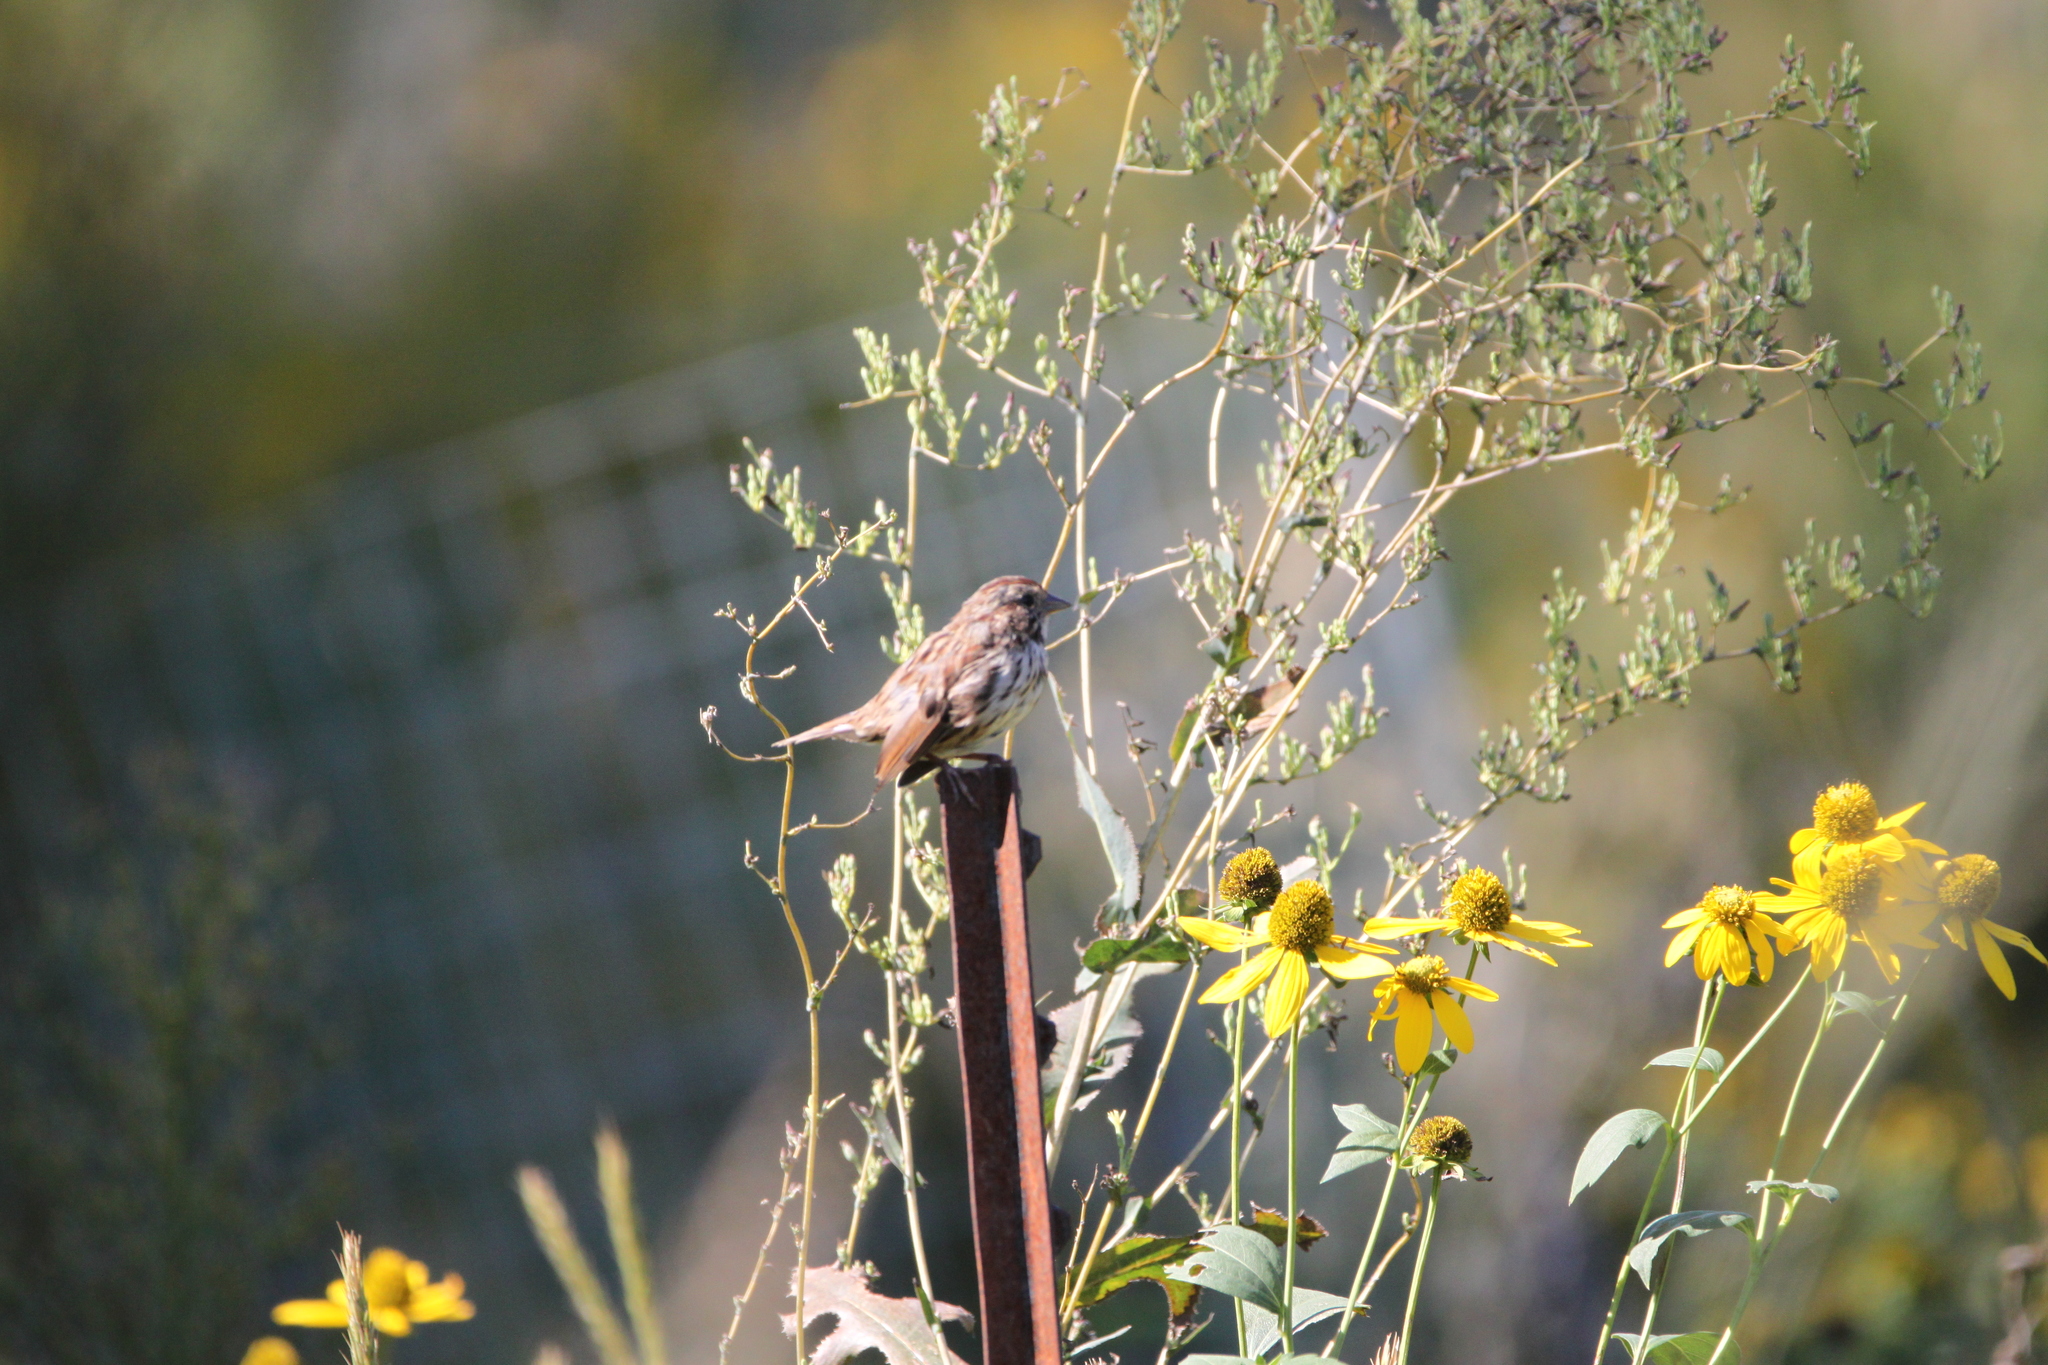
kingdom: Animalia
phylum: Chordata
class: Aves
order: Passeriformes
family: Passerellidae
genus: Melospiza
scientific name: Melospiza melodia
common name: Song sparrow
